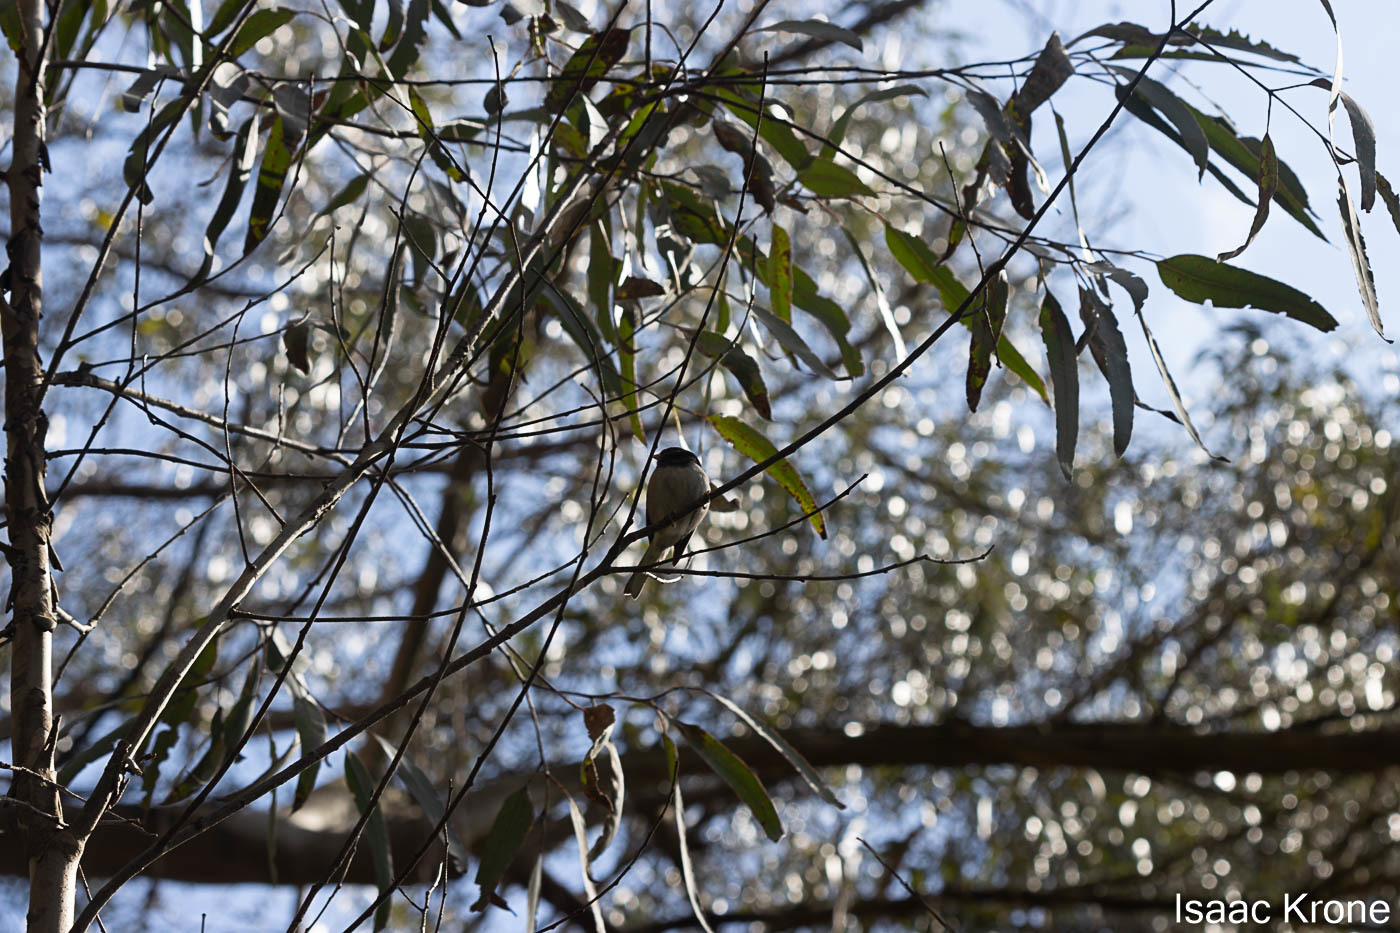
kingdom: Animalia
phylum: Chordata
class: Aves
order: Passeriformes
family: Passerellidae
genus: Junco
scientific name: Junco hyemalis
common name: Dark-eyed junco
